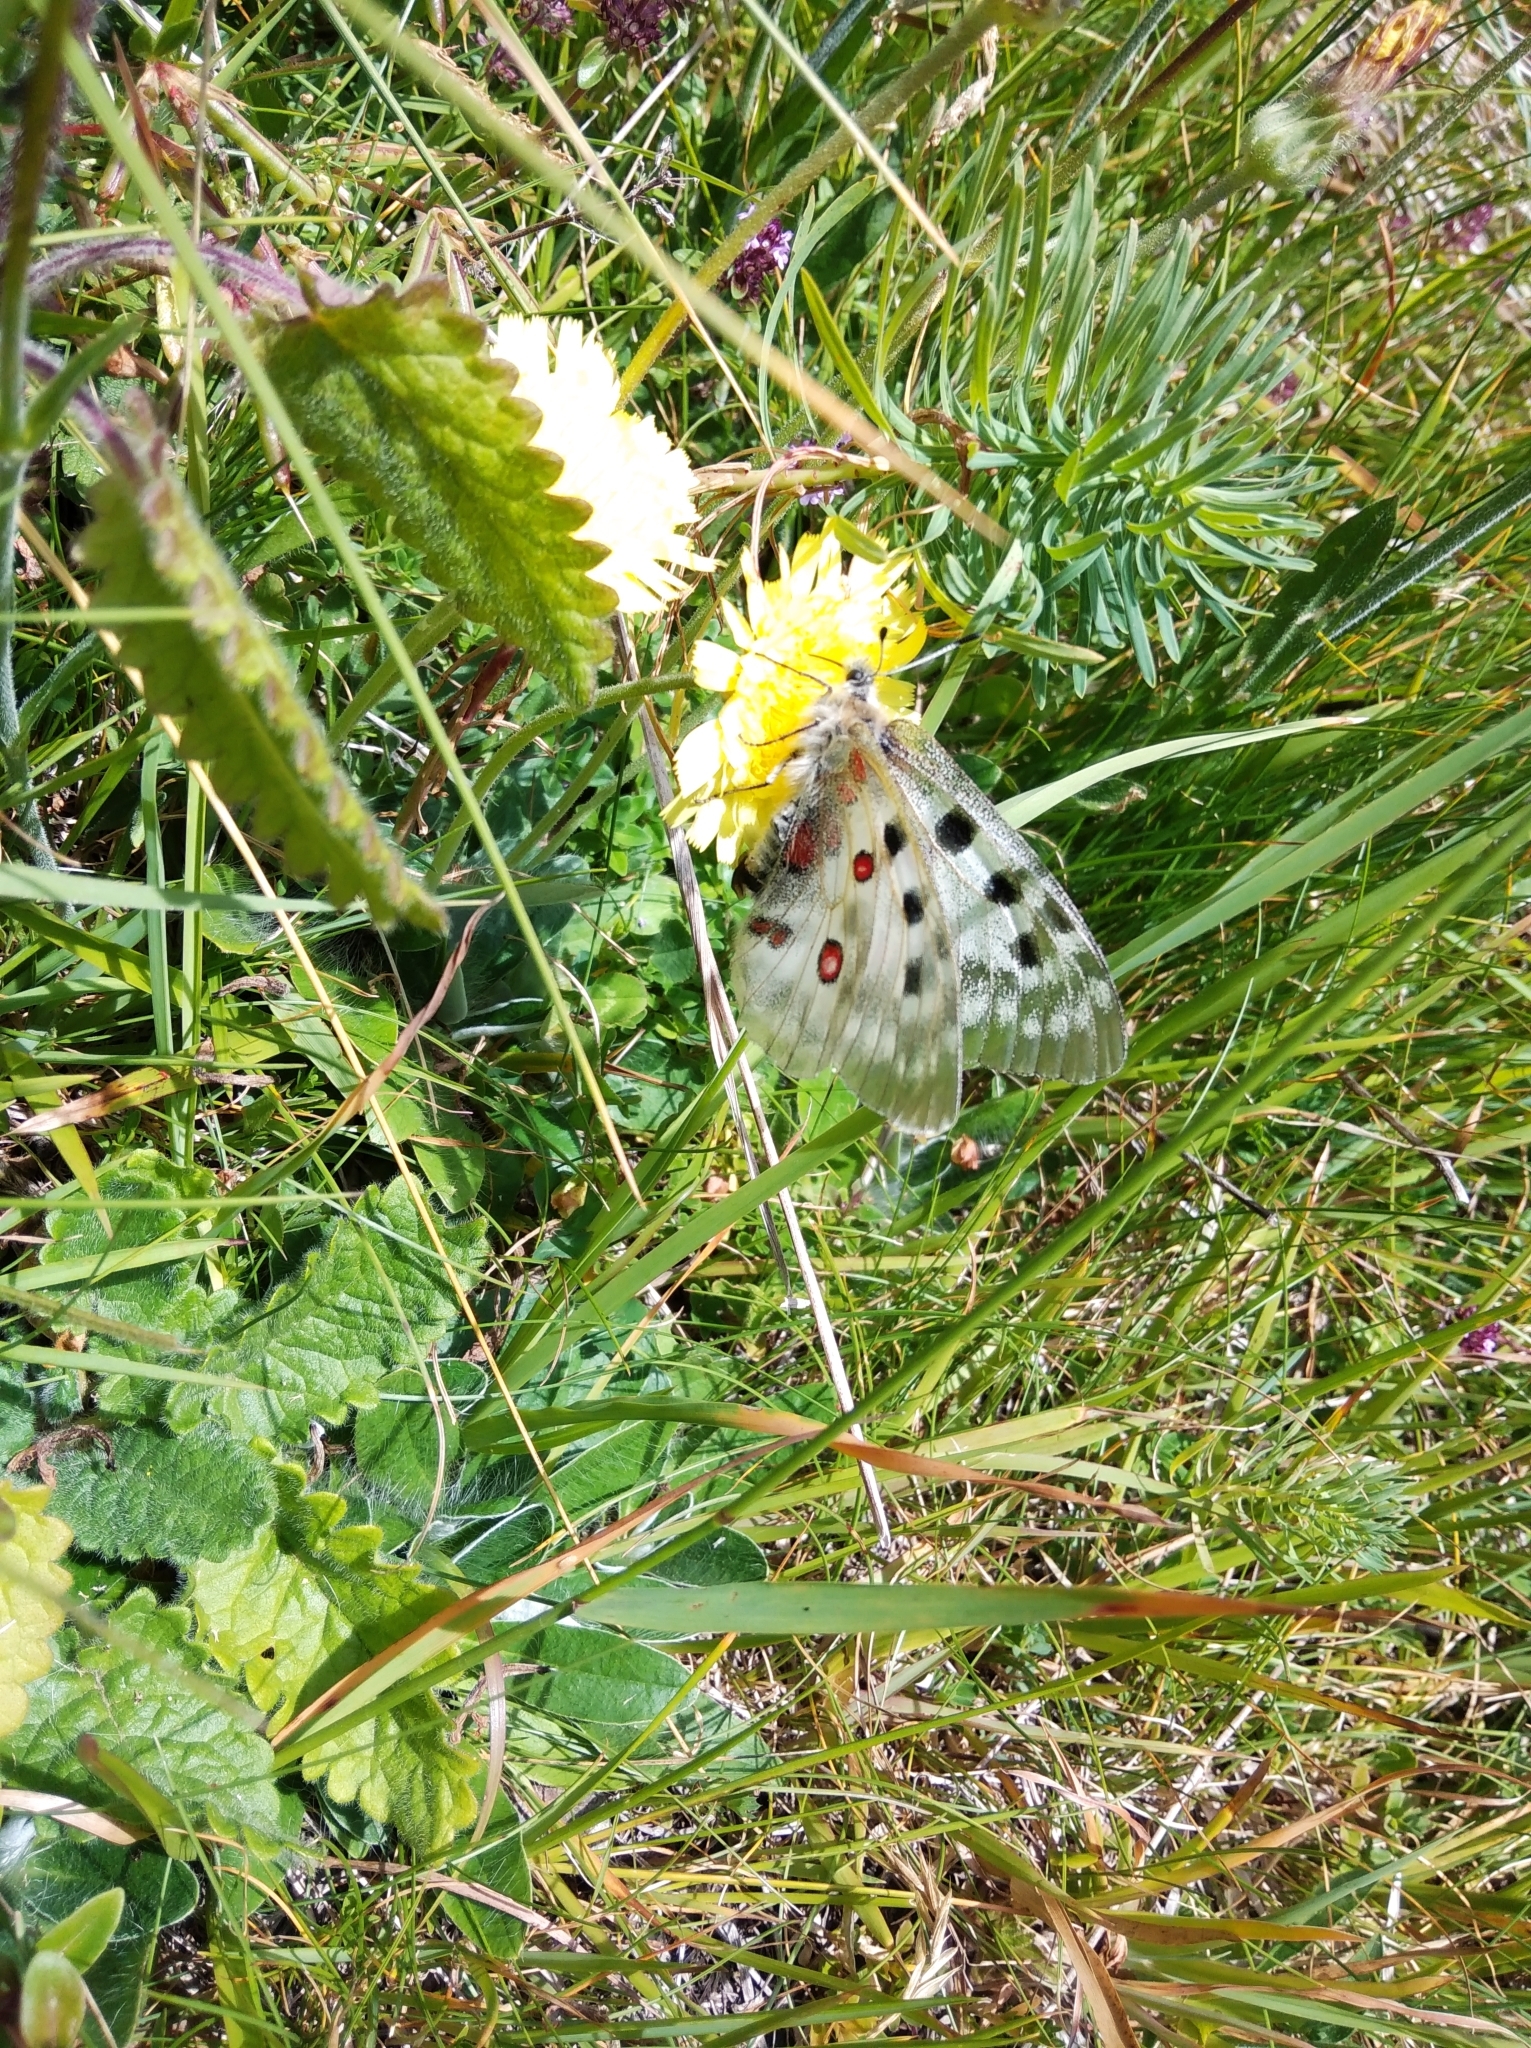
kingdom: Animalia
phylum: Arthropoda
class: Insecta
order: Lepidoptera
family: Papilionidae
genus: Parnassius
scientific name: Parnassius apollo
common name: Apollo
